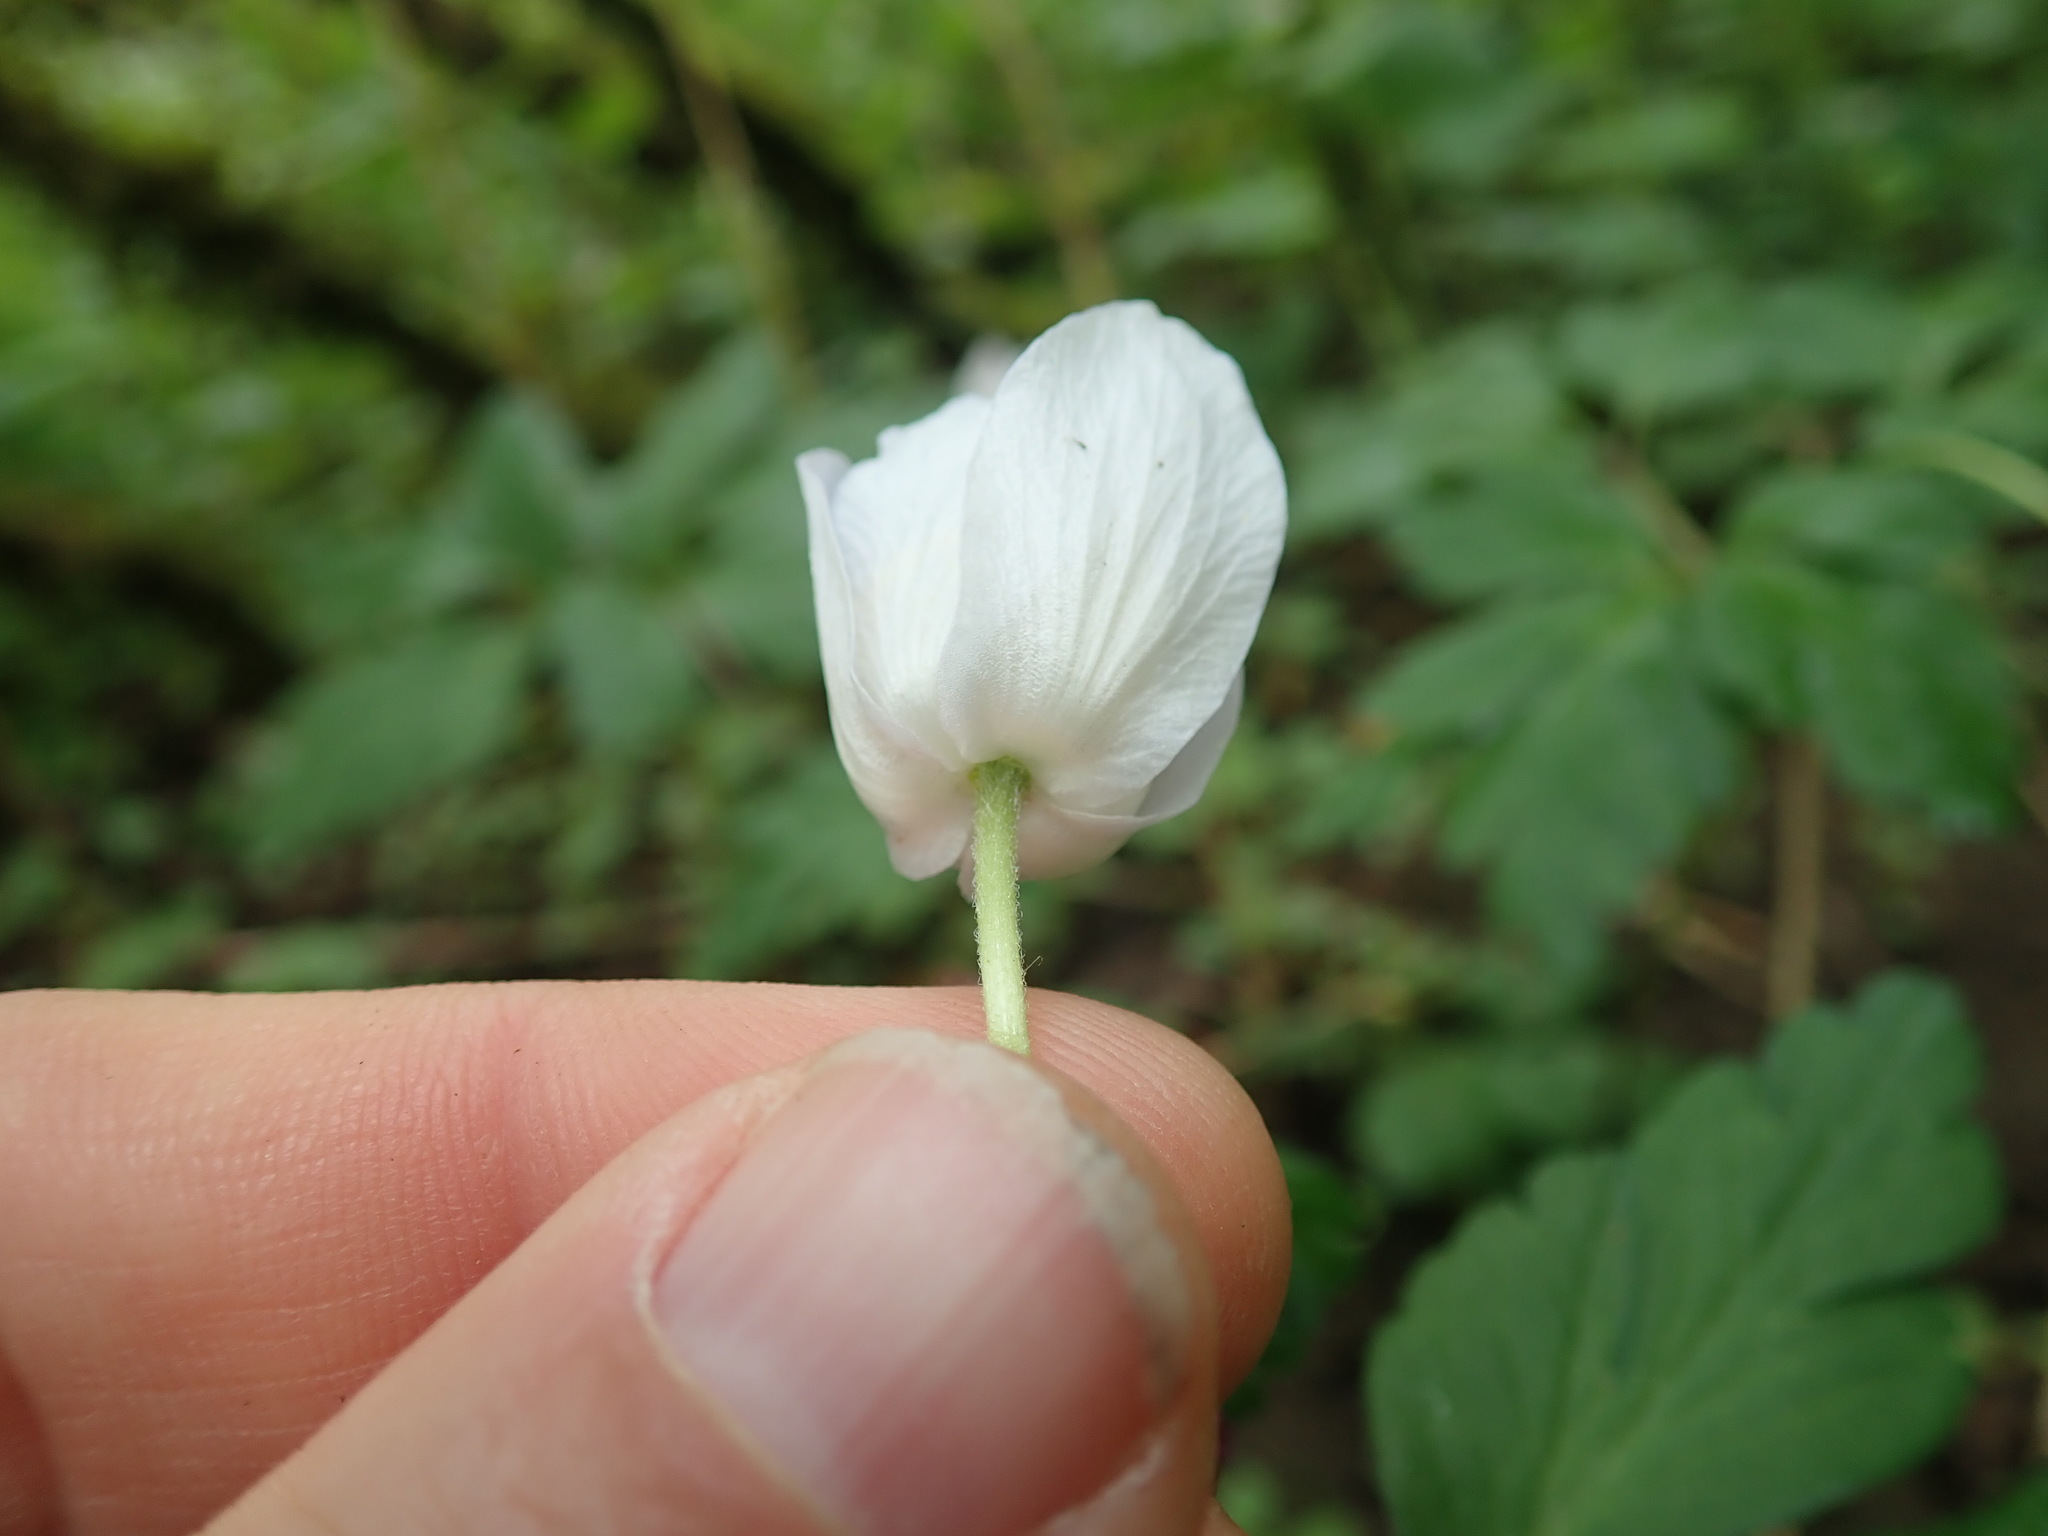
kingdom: Plantae
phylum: Tracheophyta
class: Magnoliopsida
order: Ranunculales
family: Ranunculaceae
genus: Anemone
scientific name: Anemone nemorosa
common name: Wood anemone
